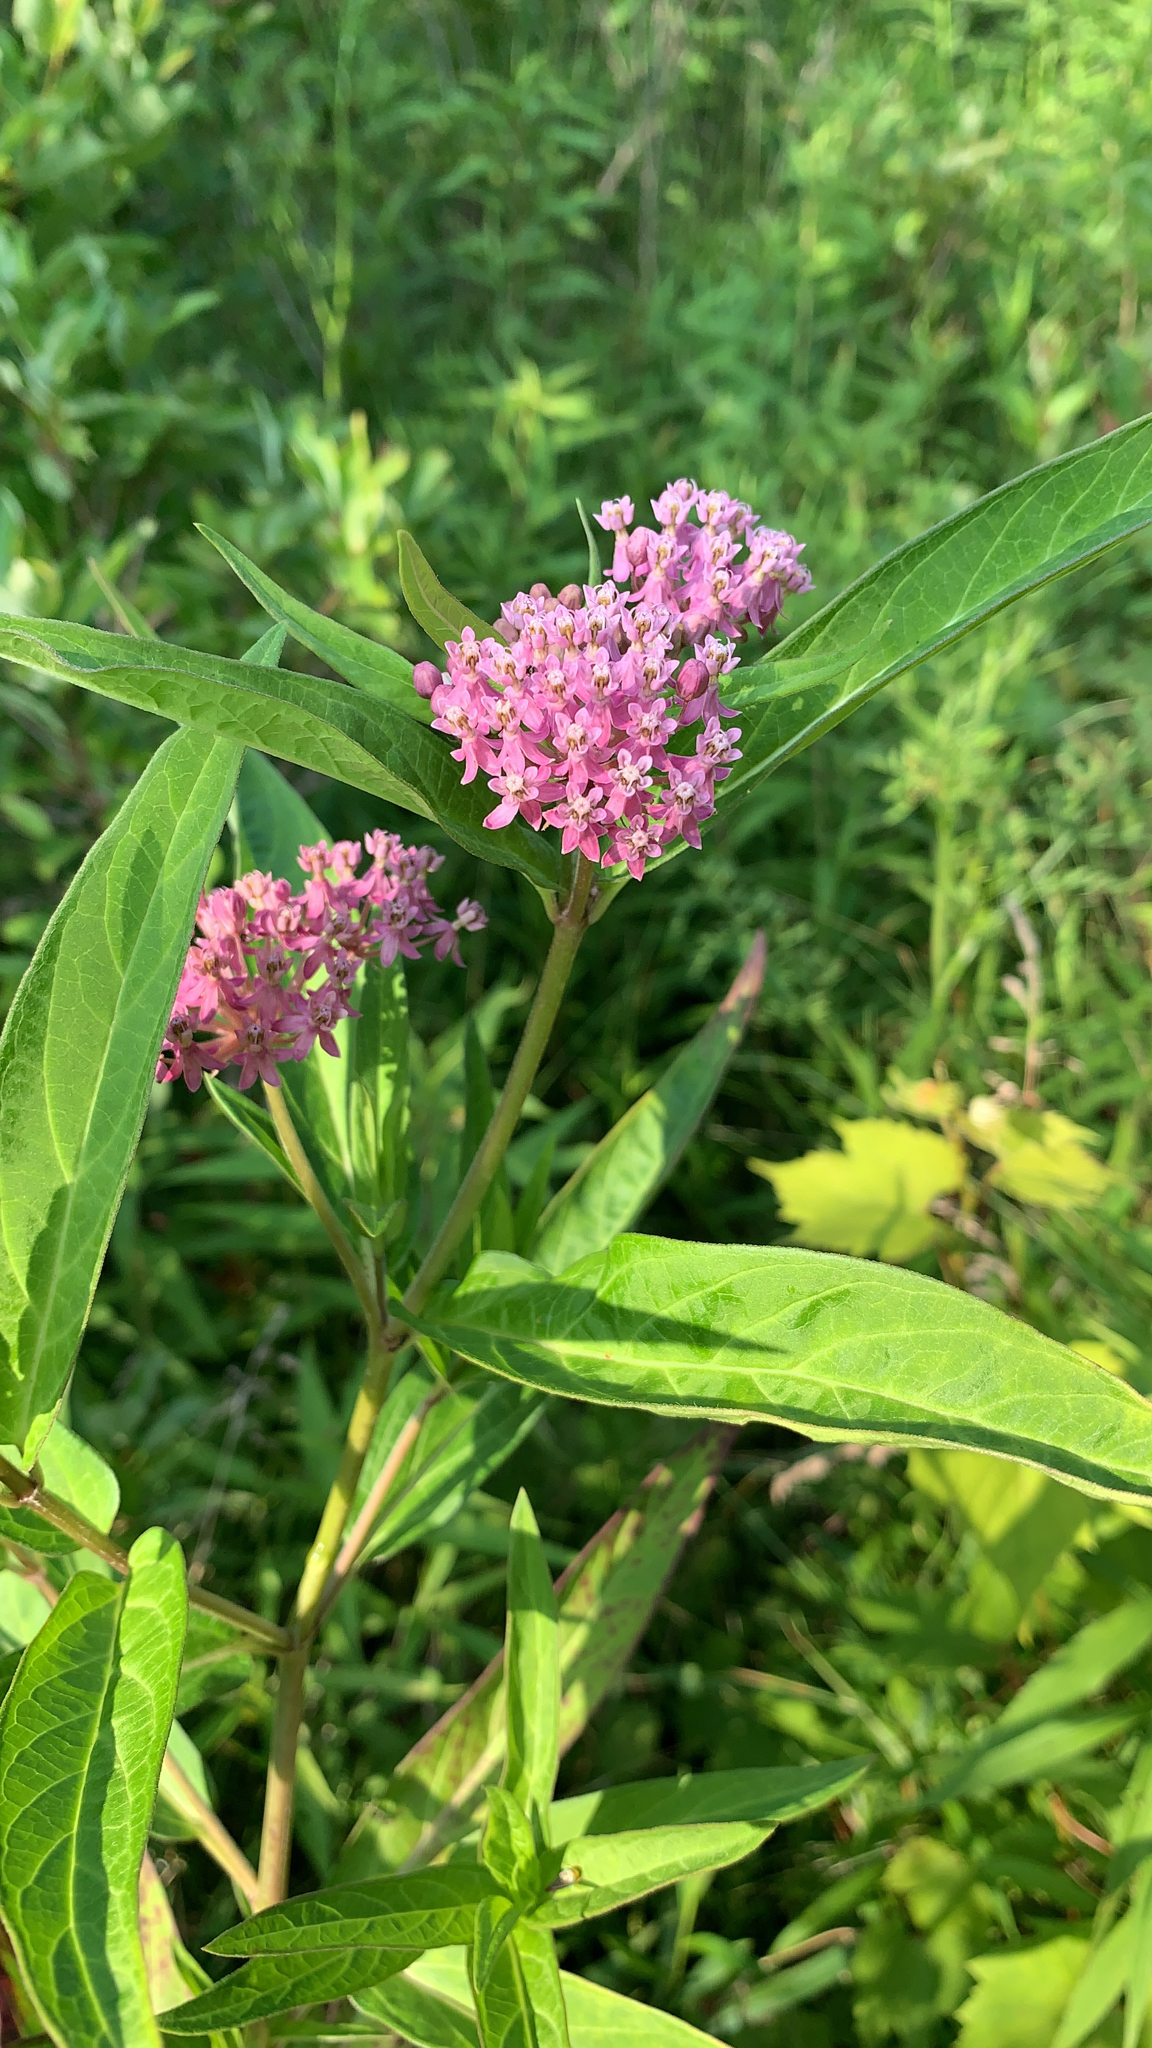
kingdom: Plantae
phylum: Tracheophyta
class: Magnoliopsida
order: Gentianales
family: Apocynaceae
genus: Asclepias
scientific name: Asclepias incarnata
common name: Swamp milkweed
